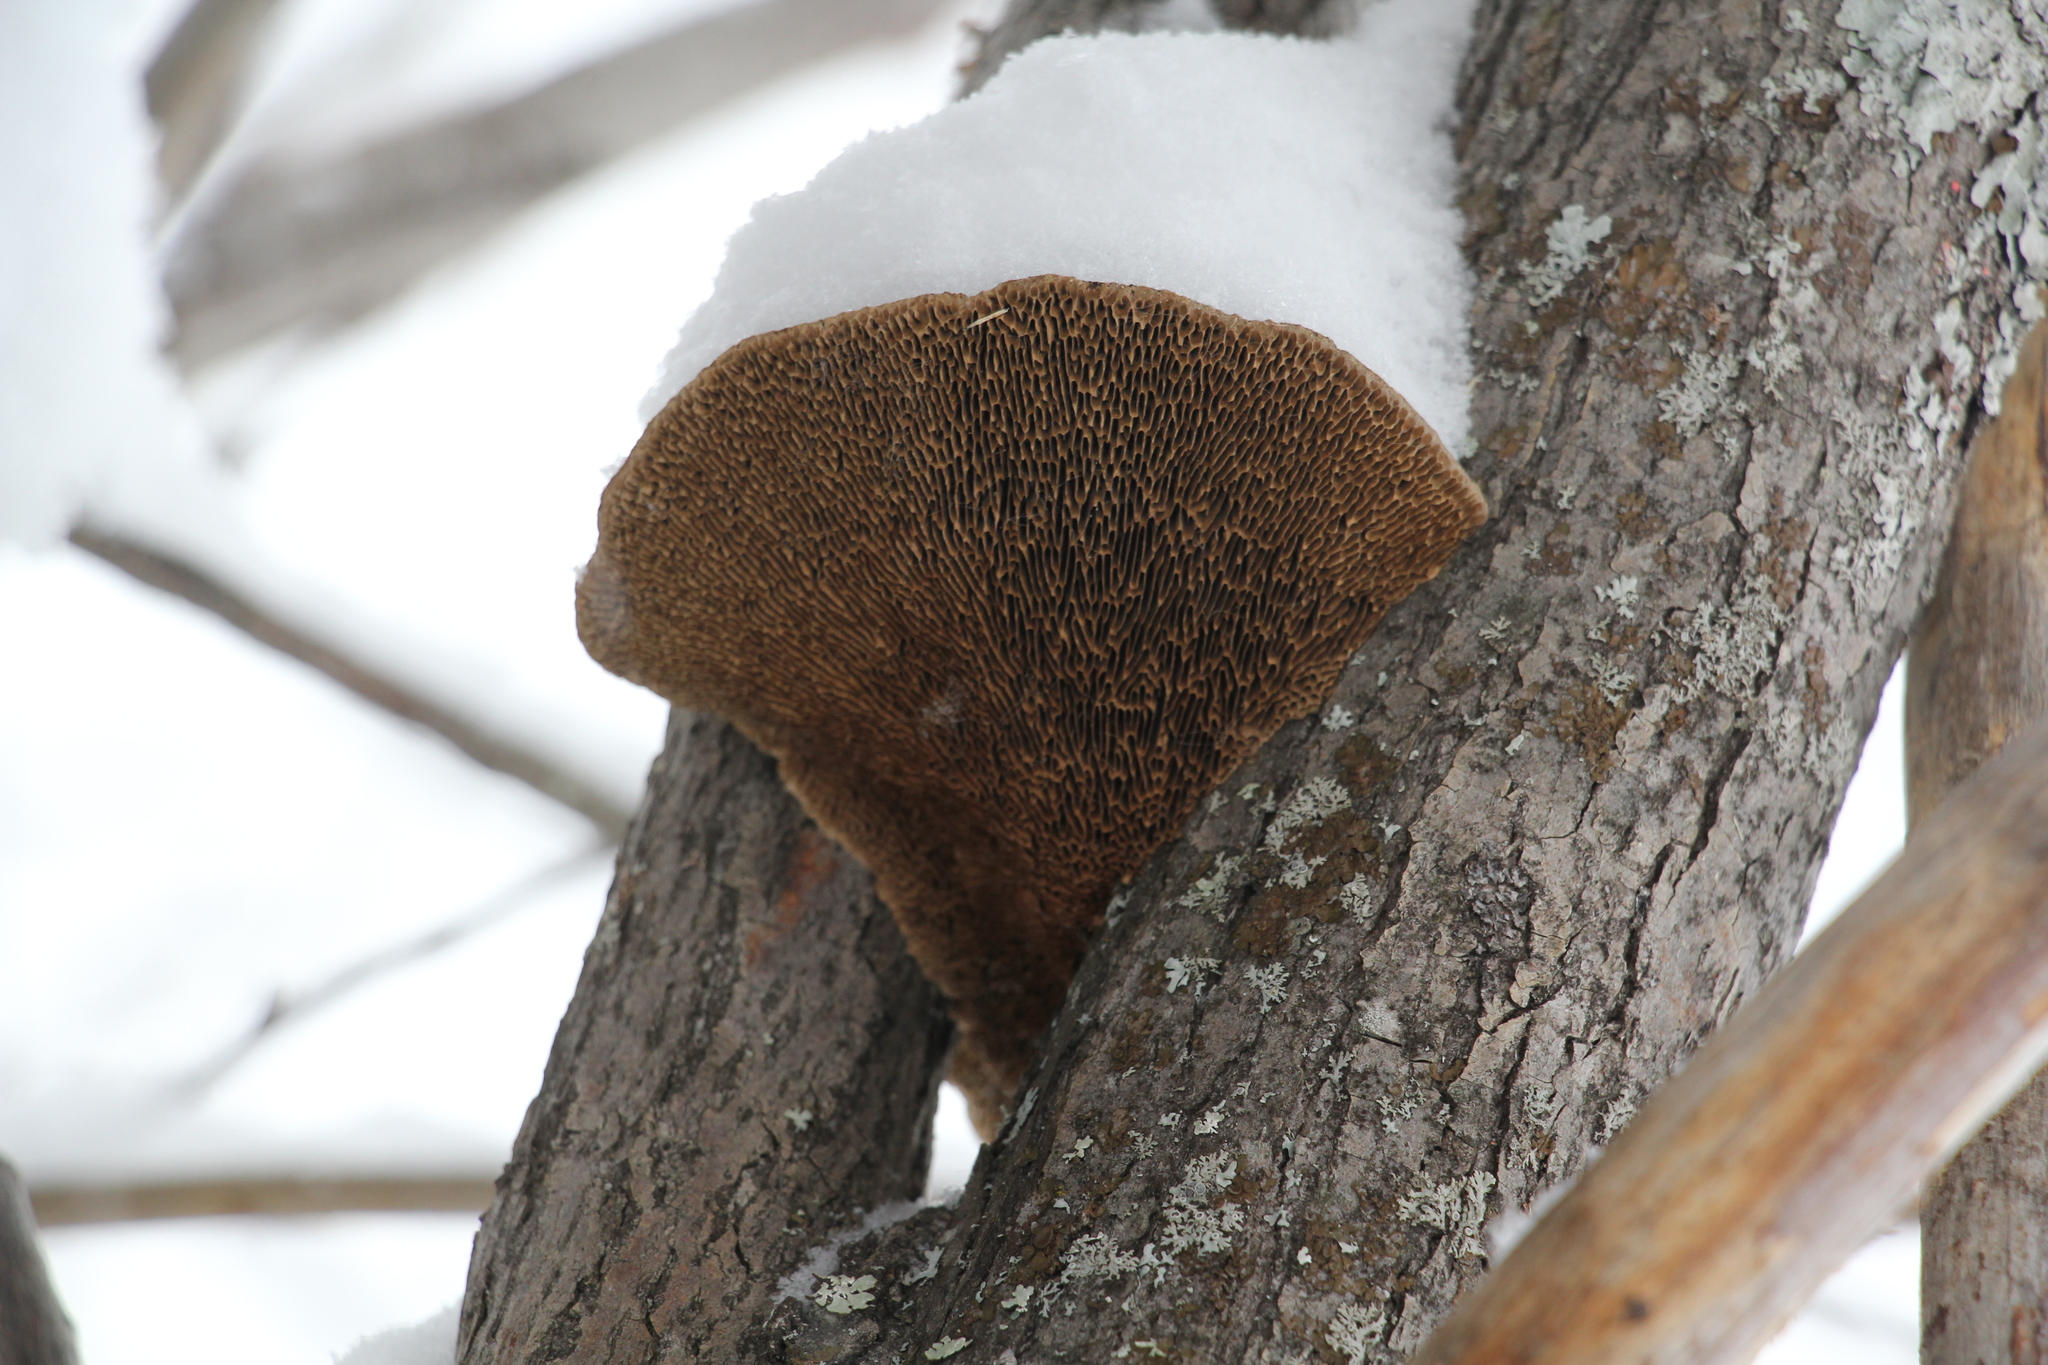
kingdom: Fungi
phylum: Basidiomycota
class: Agaricomycetes
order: Polyporales
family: Polyporaceae
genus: Daedaleopsis
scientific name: Daedaleopsis confragosa
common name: Blushing bracket
